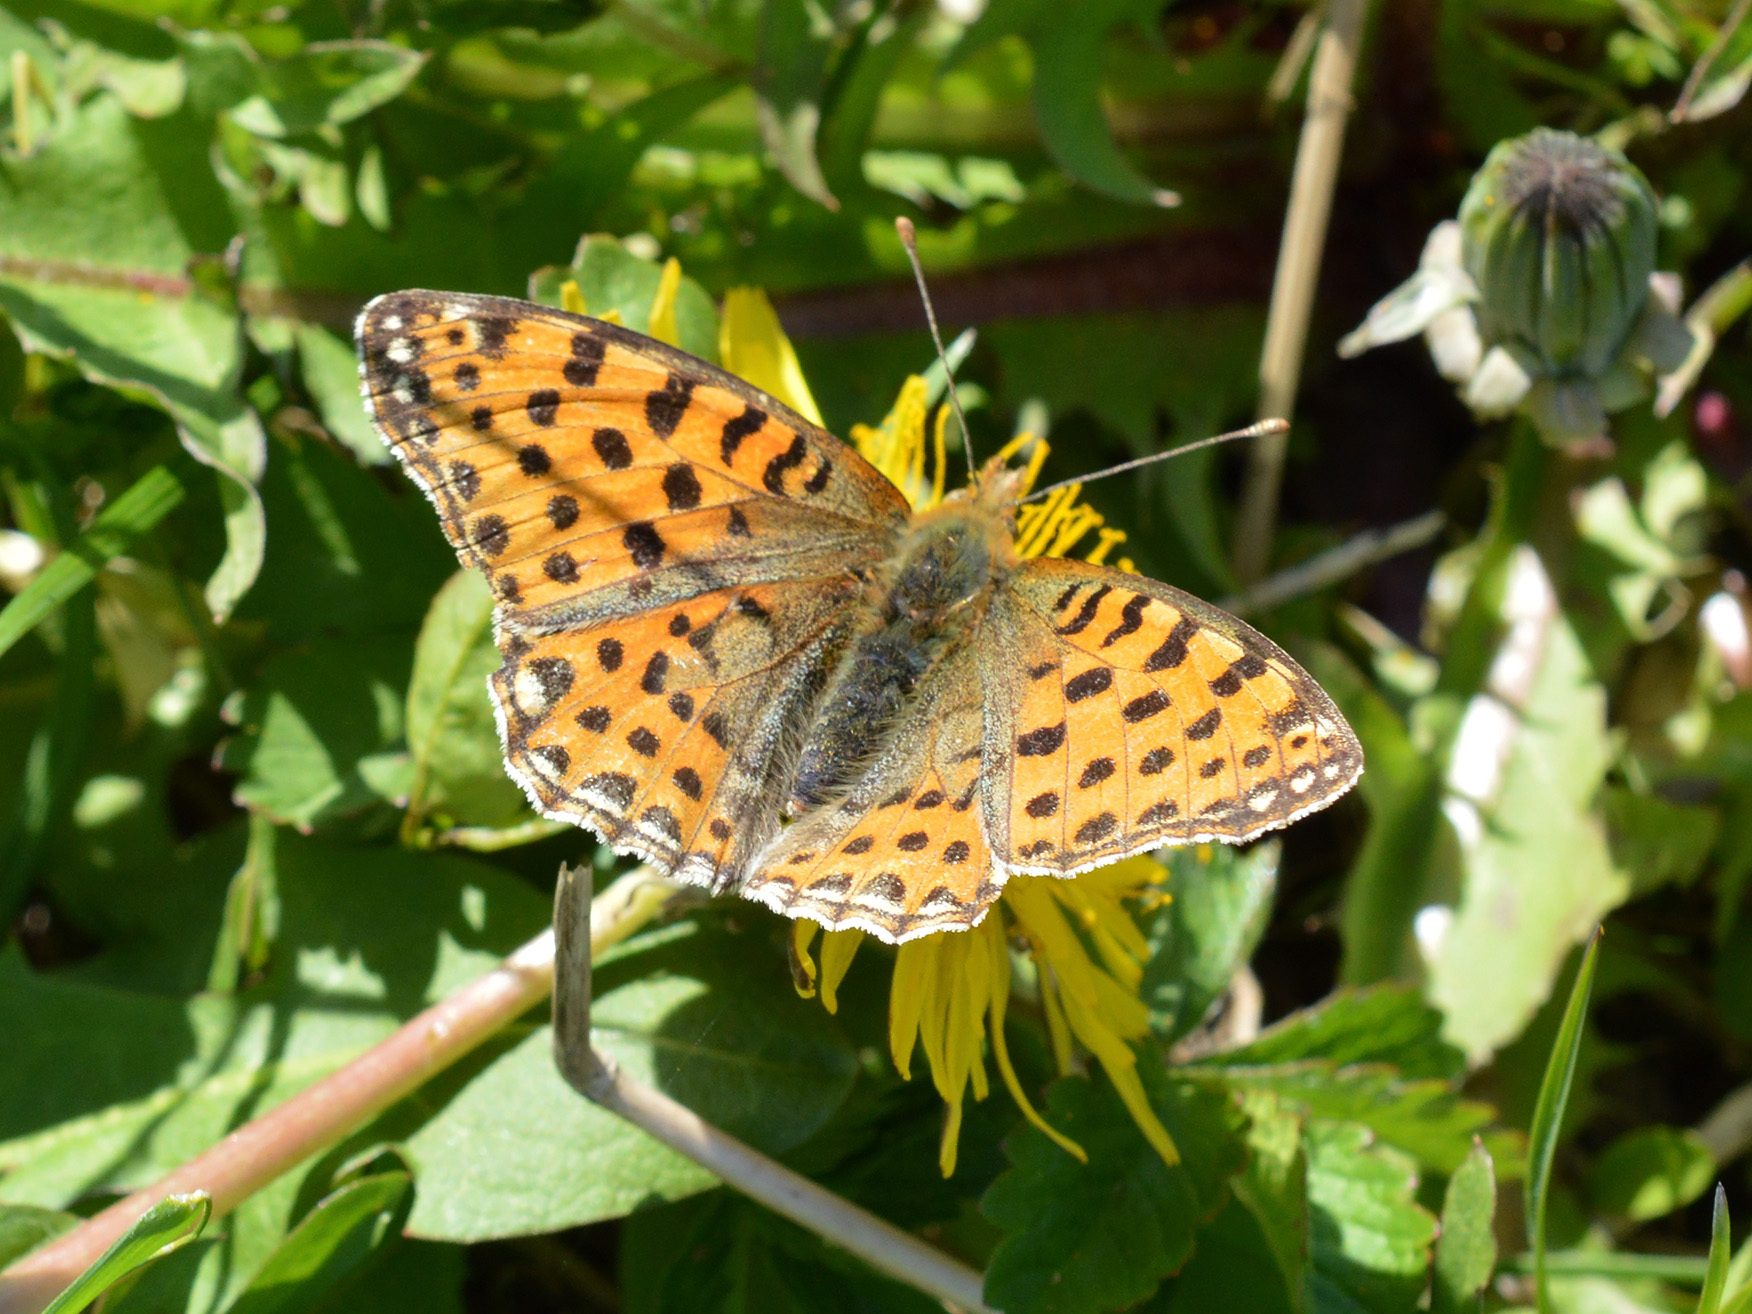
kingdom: Animalia
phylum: Arthropoda
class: Insecta
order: Lepidoptera
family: Nymphalidae
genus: Issoria
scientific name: Issoria lathonia
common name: Queen of spain fritillary
